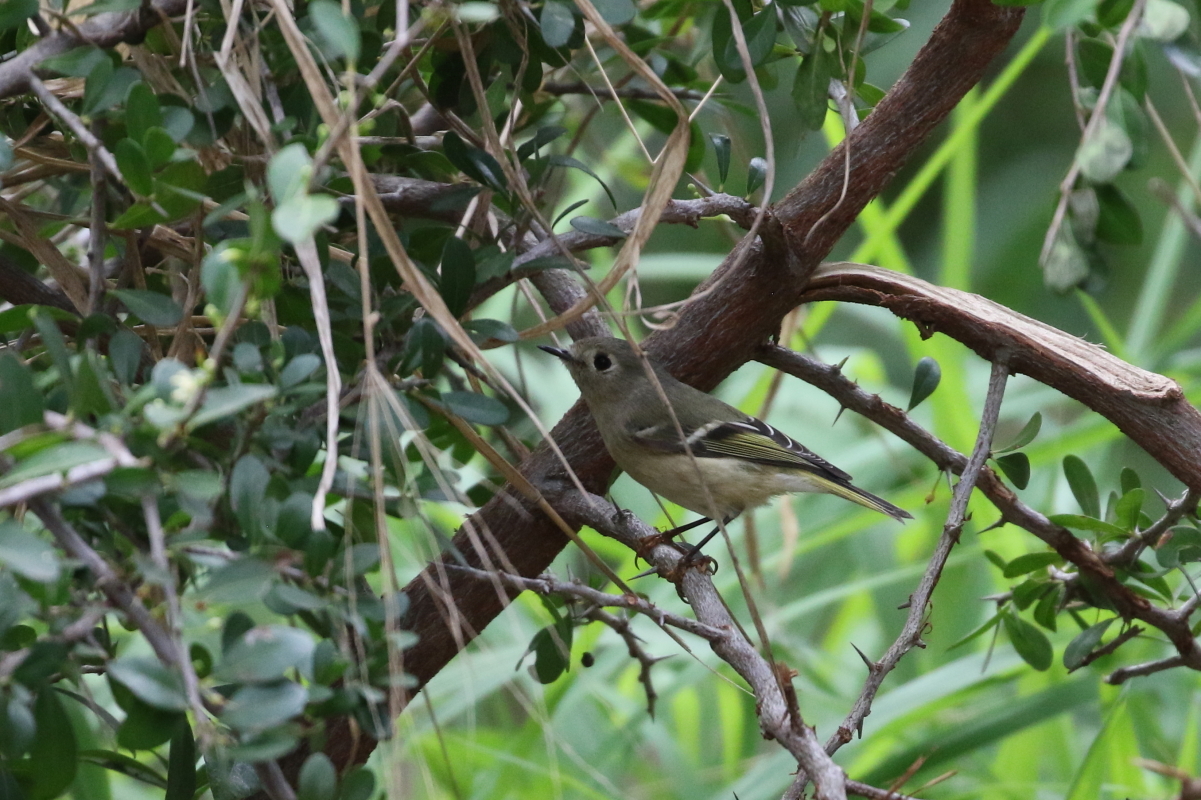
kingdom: Animalia
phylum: Chordata
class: Aves
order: Passeriformes
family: Regulidae
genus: Regulus
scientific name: Regulus calendula
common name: Ruby-crowned kinglet
